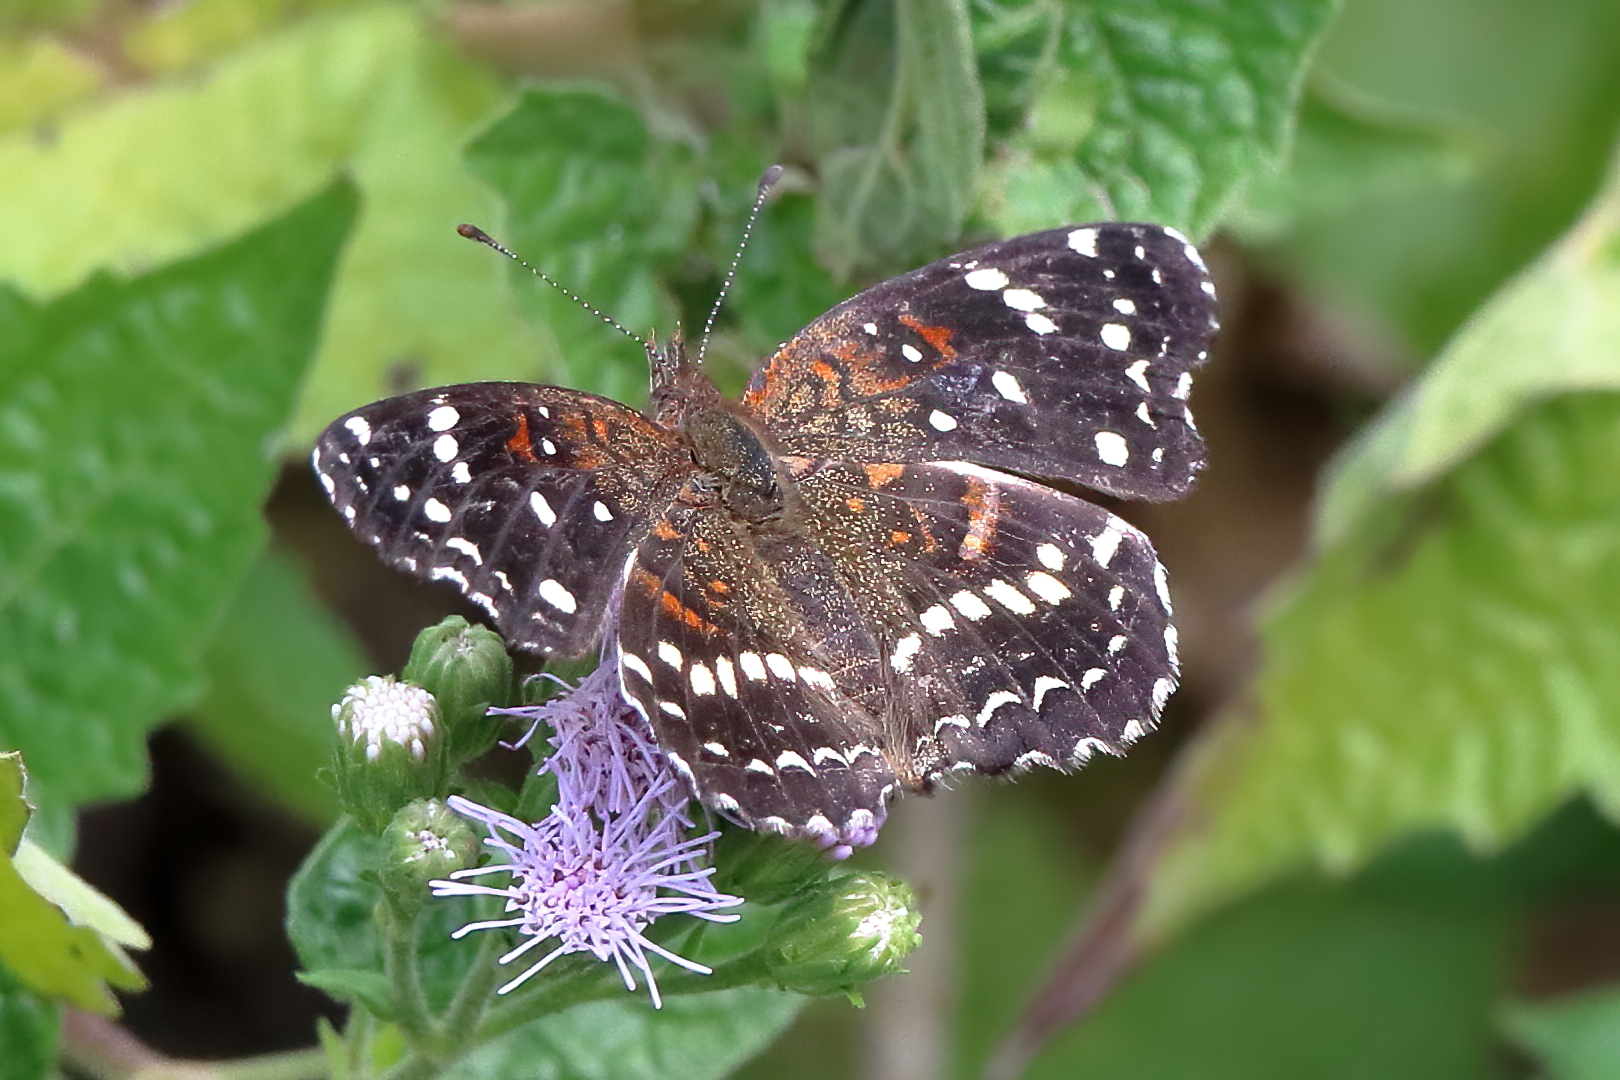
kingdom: Animalia
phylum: Arthropoda
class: Insecta
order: Lepidoptera
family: Nymphalidae
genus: Anthanassa
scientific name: Anthanassa texana
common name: Texan crescent
